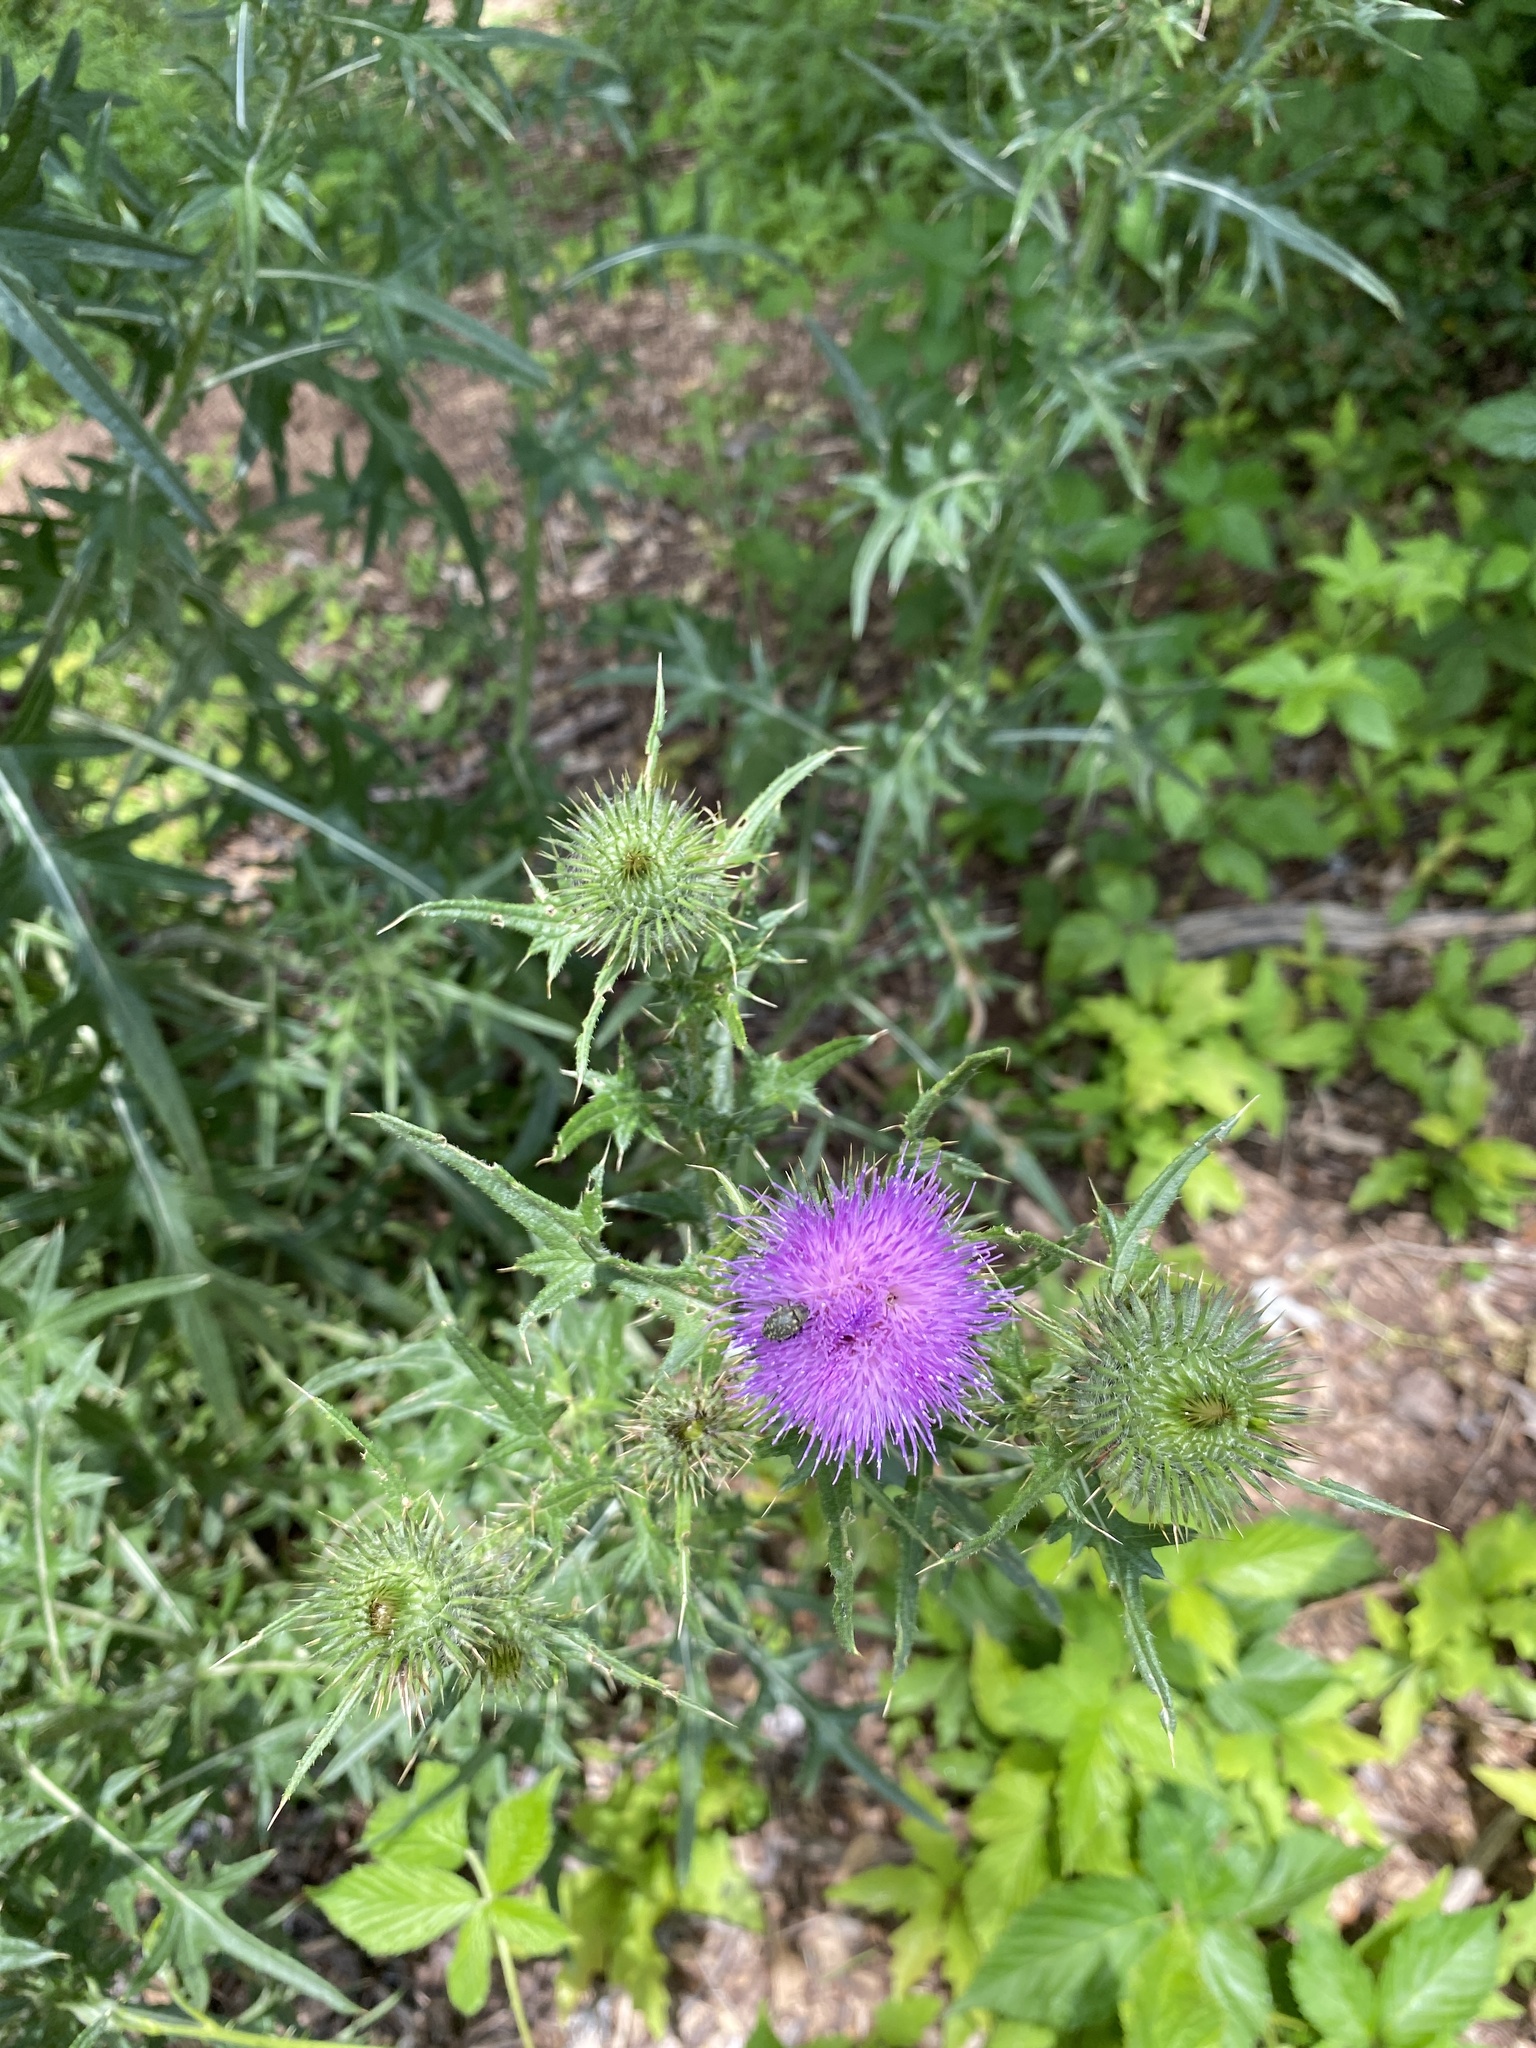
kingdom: Plantae
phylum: Tracheophyta
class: Magnoliopsida
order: Asterales
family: Asteraceae
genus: Cirsium
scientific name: Cirsium vulgare
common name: Bull thistle
